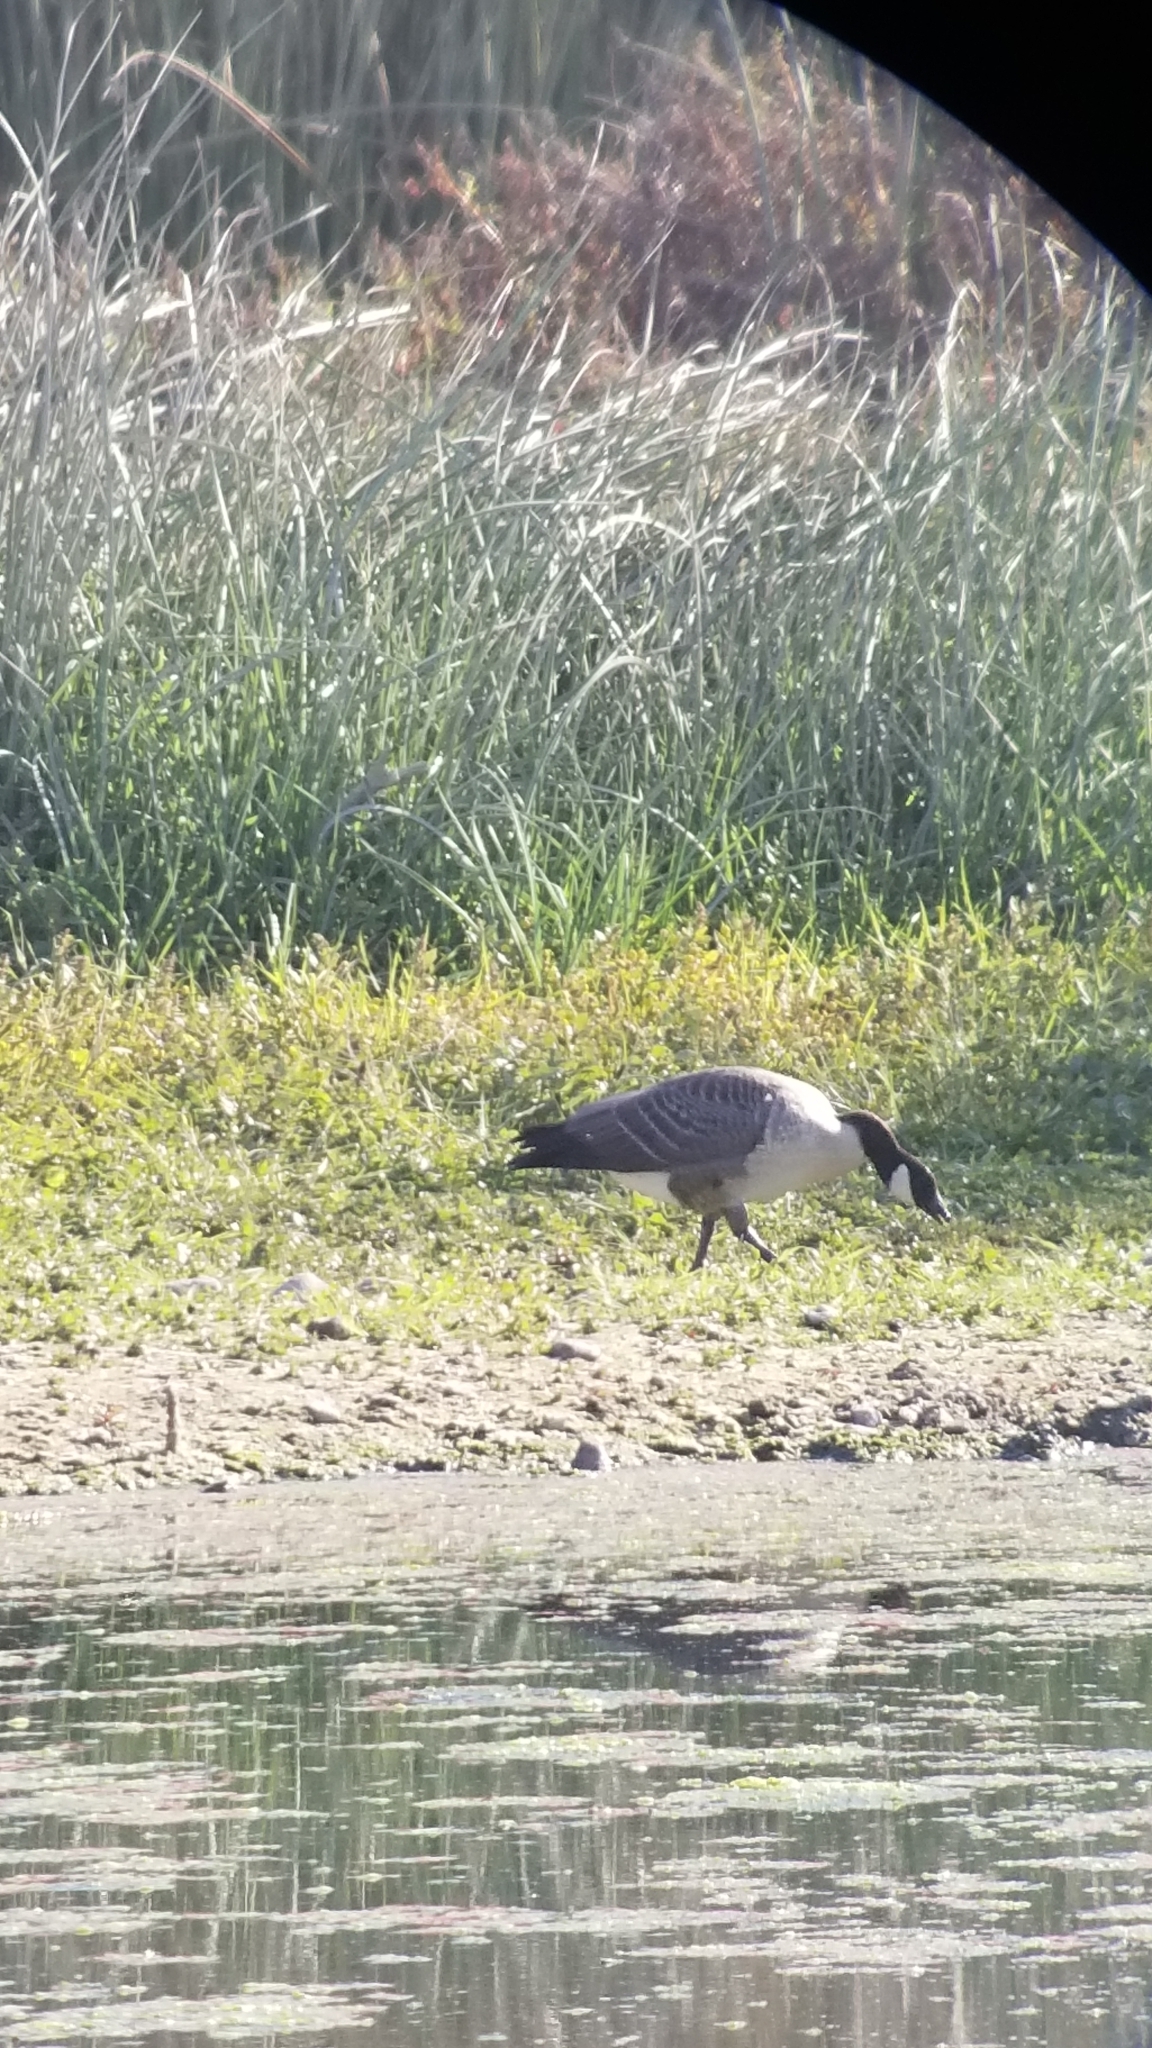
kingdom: Animalia
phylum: Chordata
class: Aves
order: Anseriformes
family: Anatidae
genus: Branta
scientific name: Branta hutchinsii
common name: Cackling goose
